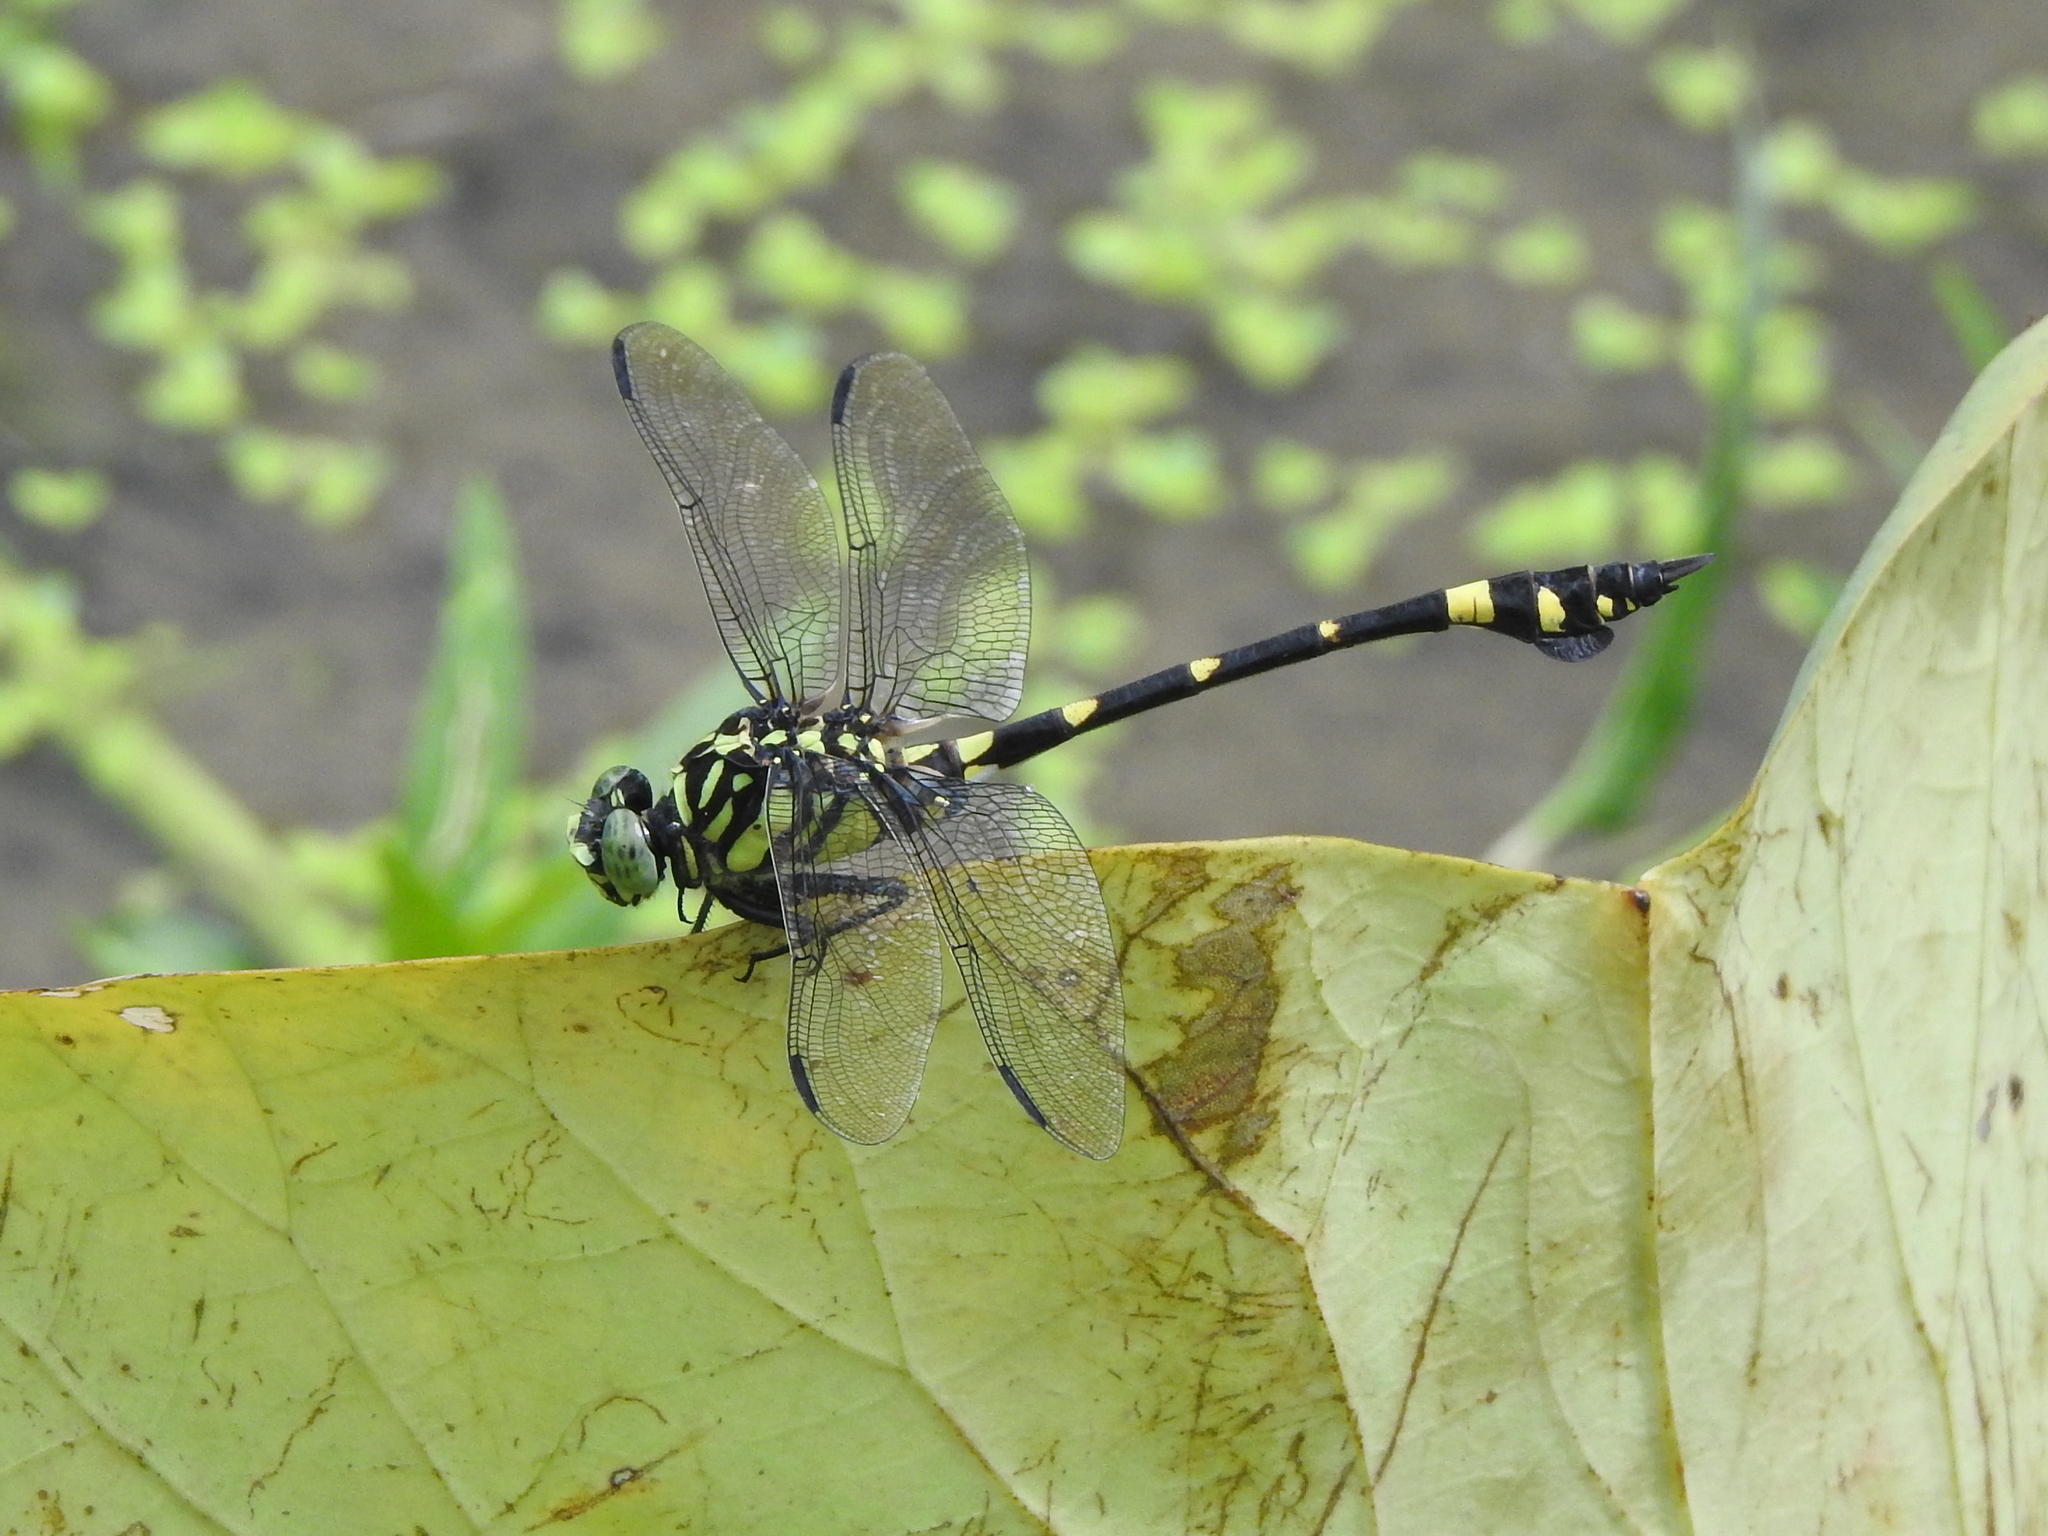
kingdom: Animalia
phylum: Arthropoda
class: Insecta
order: Odonata
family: Gomphidae
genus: Ictinogomphus
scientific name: Ictinogomphus rapax
